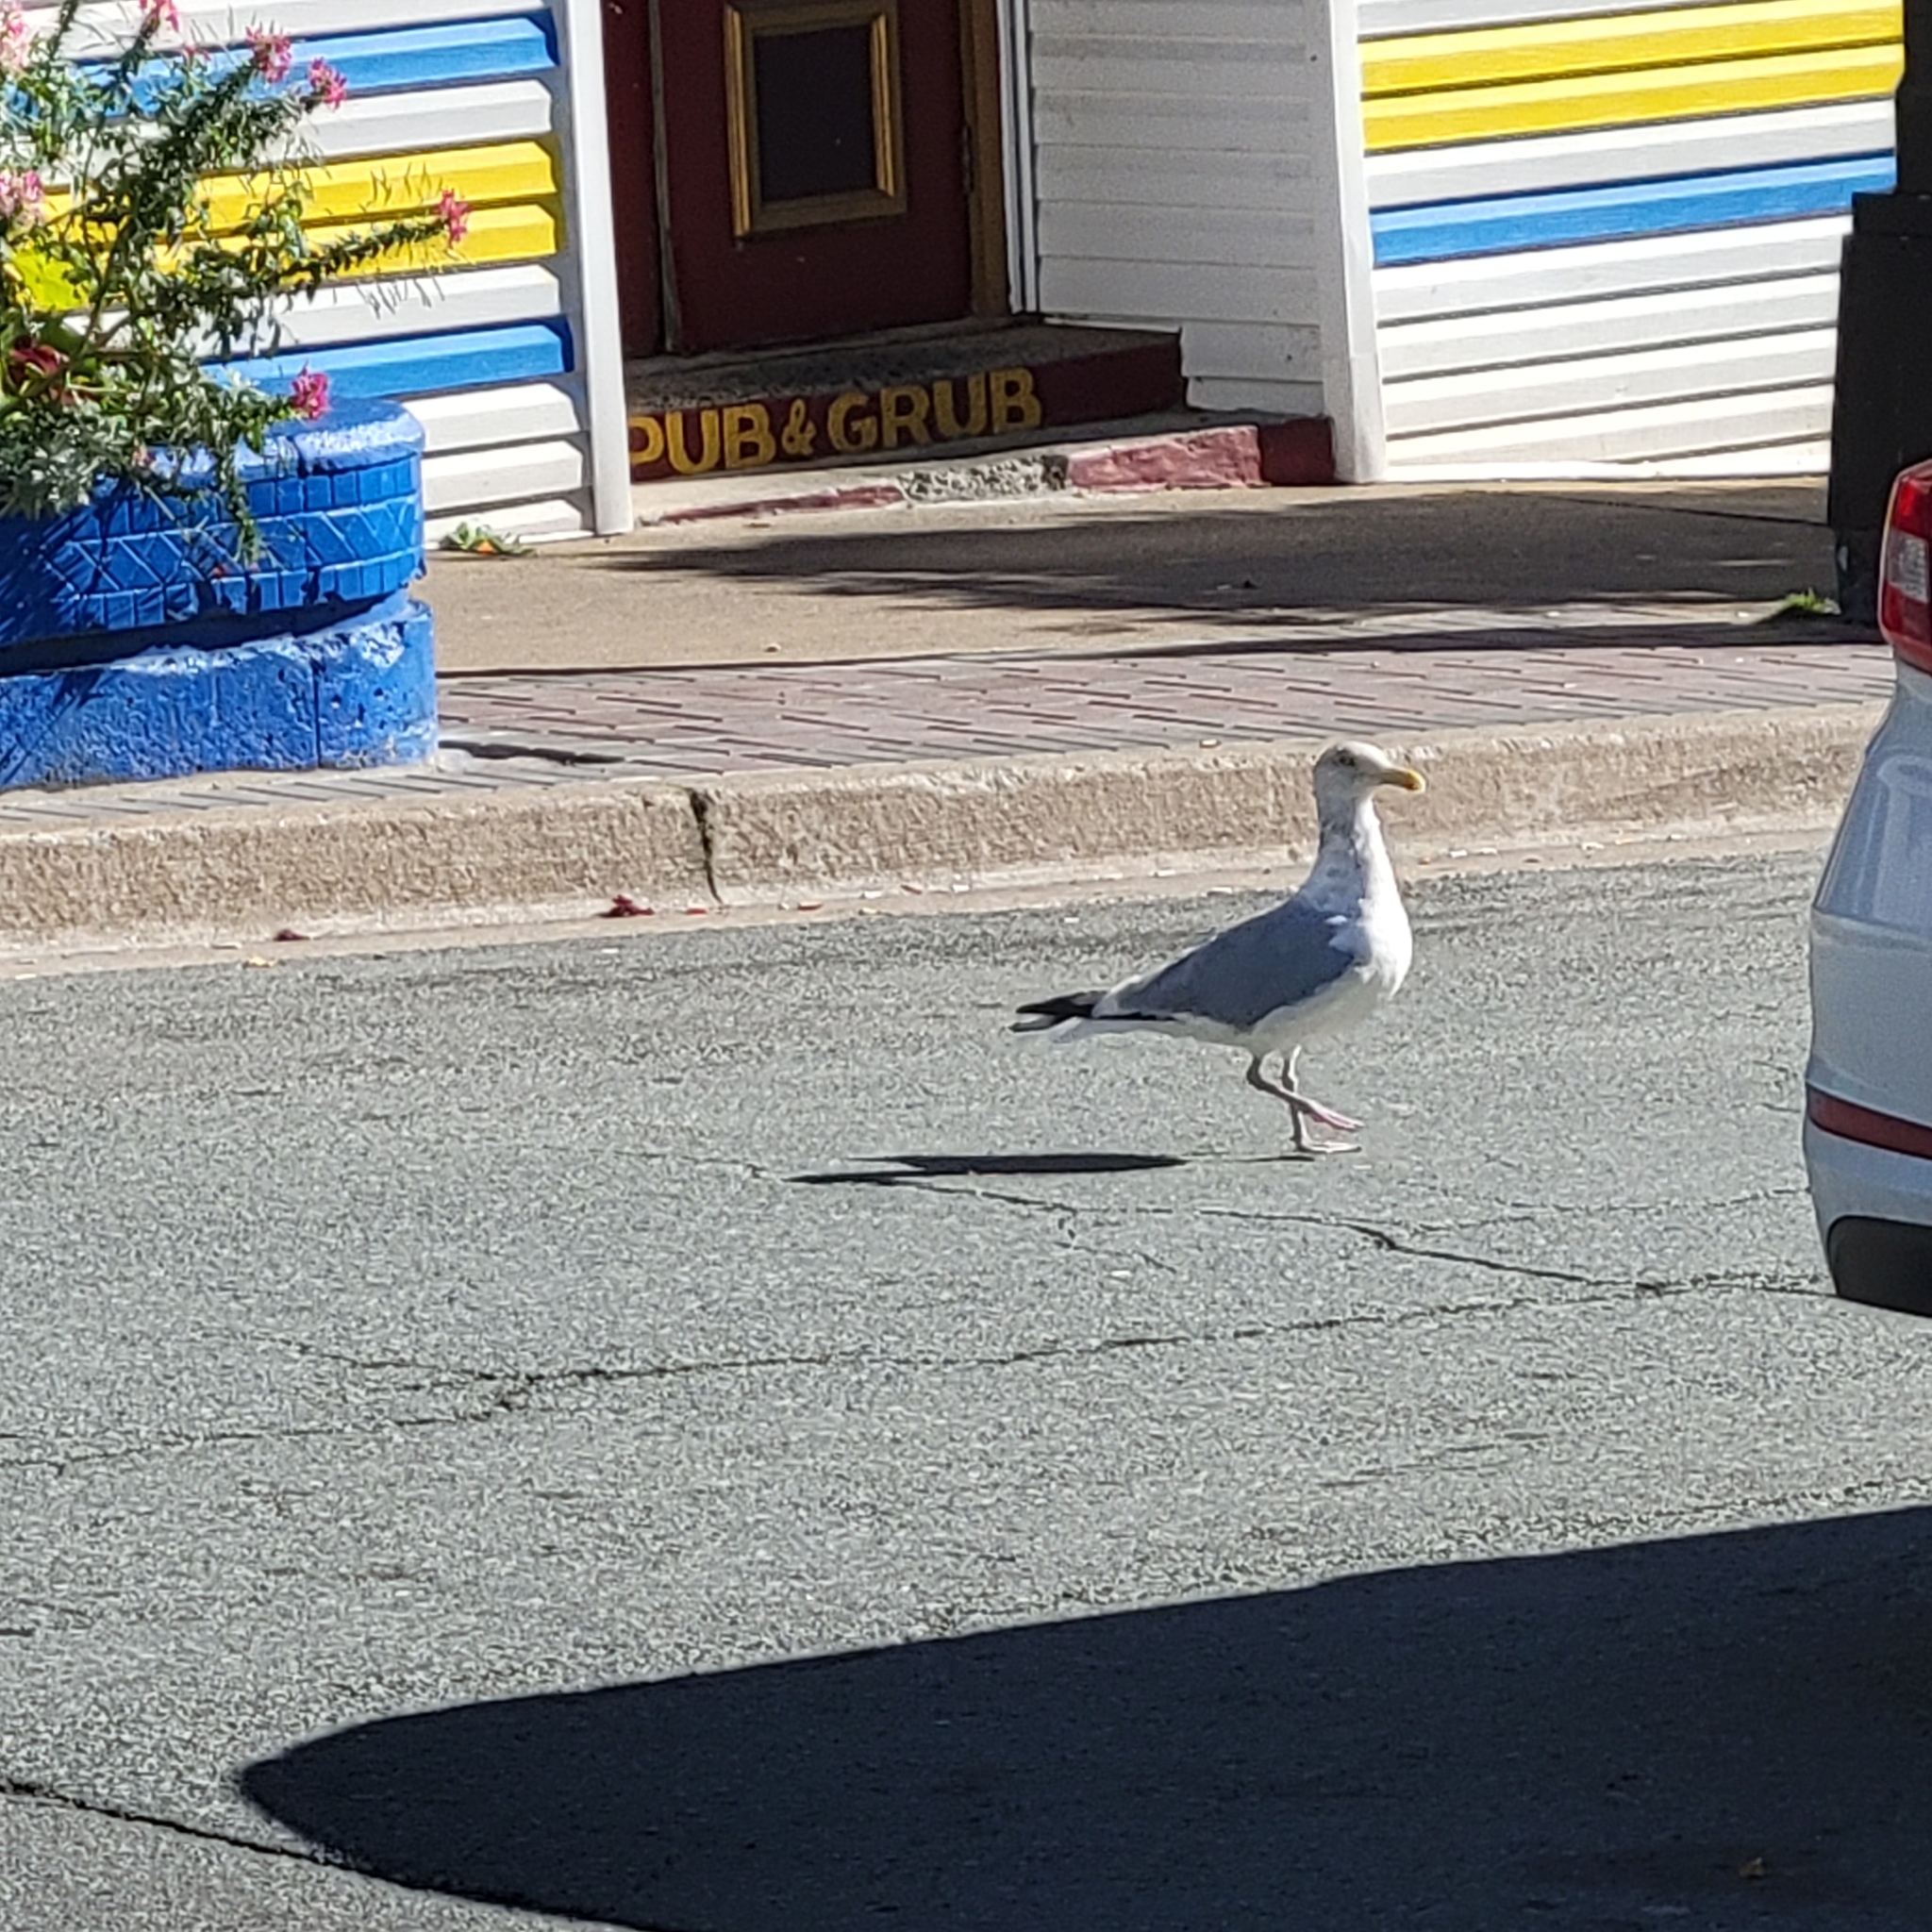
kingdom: Animalia
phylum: Chordata
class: Aves
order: Charadriiformes
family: Laridae
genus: Larus
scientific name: Larus argentatus
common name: Herring gull
